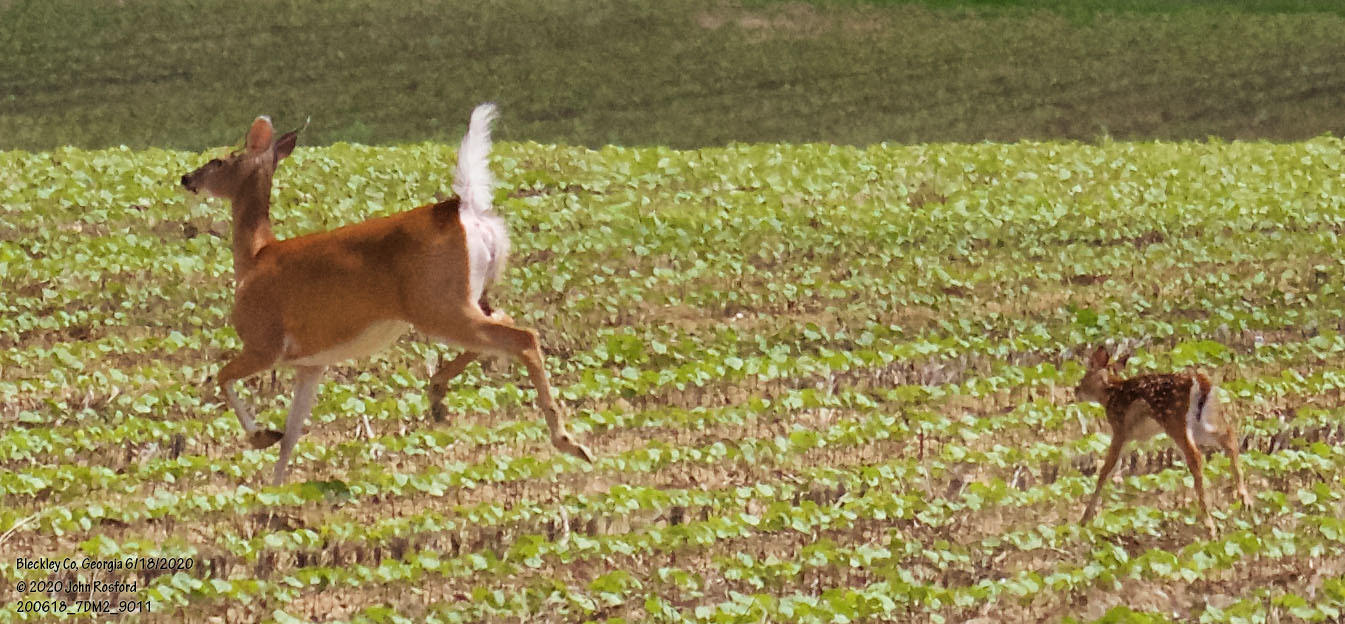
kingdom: Animalia
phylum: Chordata
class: Mammalia
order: Artiodactyla
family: Cervidae
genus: Odocoileus
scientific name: Odocoileus virginianus
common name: White-tailed deer
